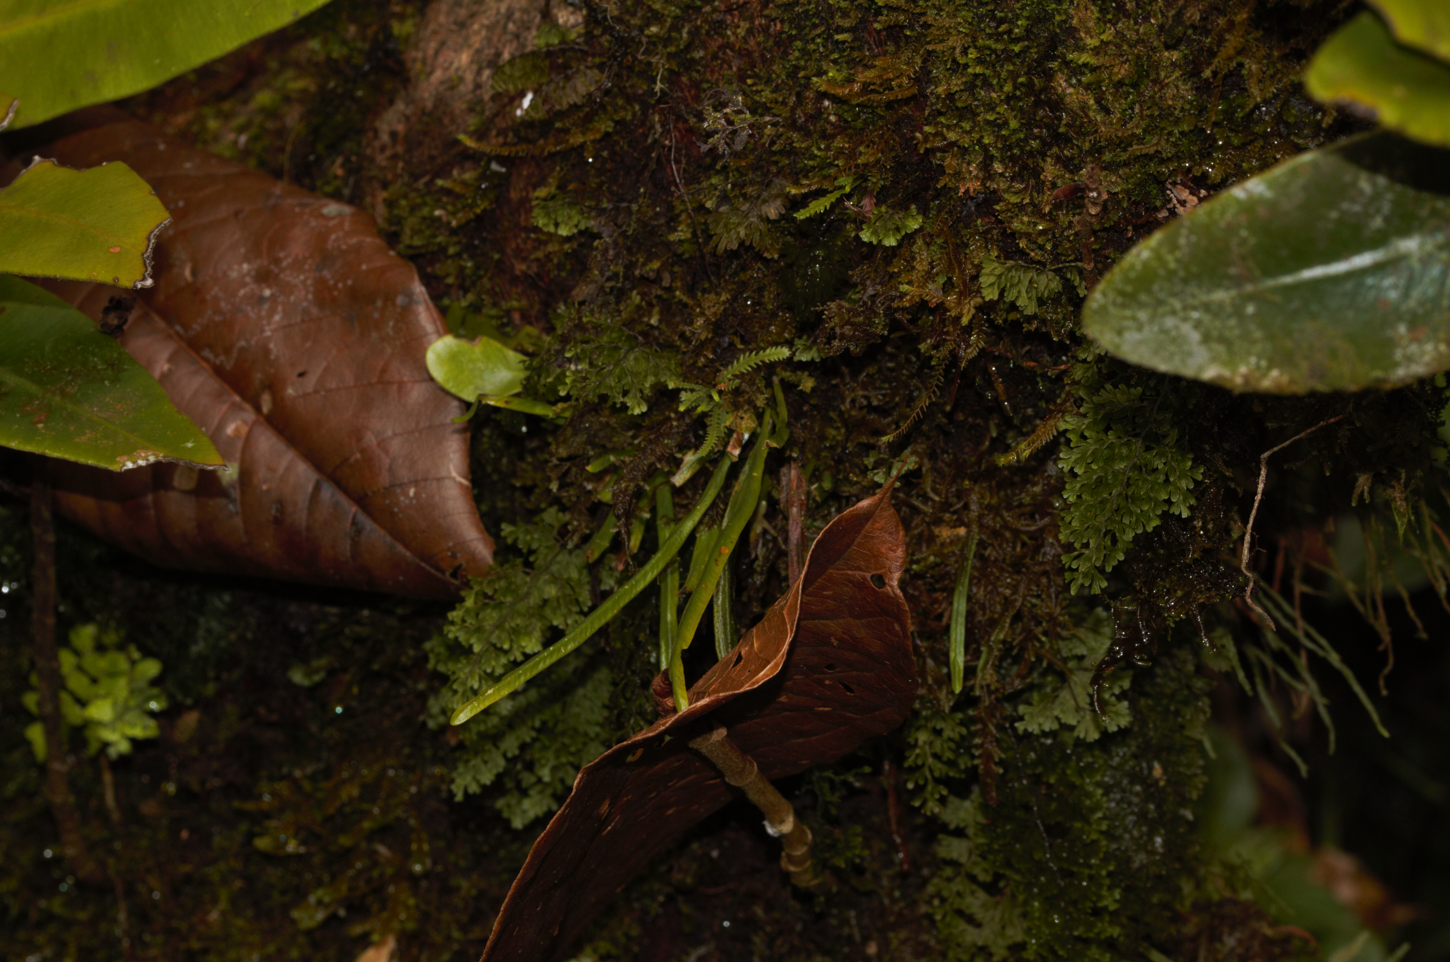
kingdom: Plantae
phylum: Tracheophyta
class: Polypodiopsida
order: Polypodiales
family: Polypodiaceae
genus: Cochlidium
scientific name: Cochlidium linearifolium
